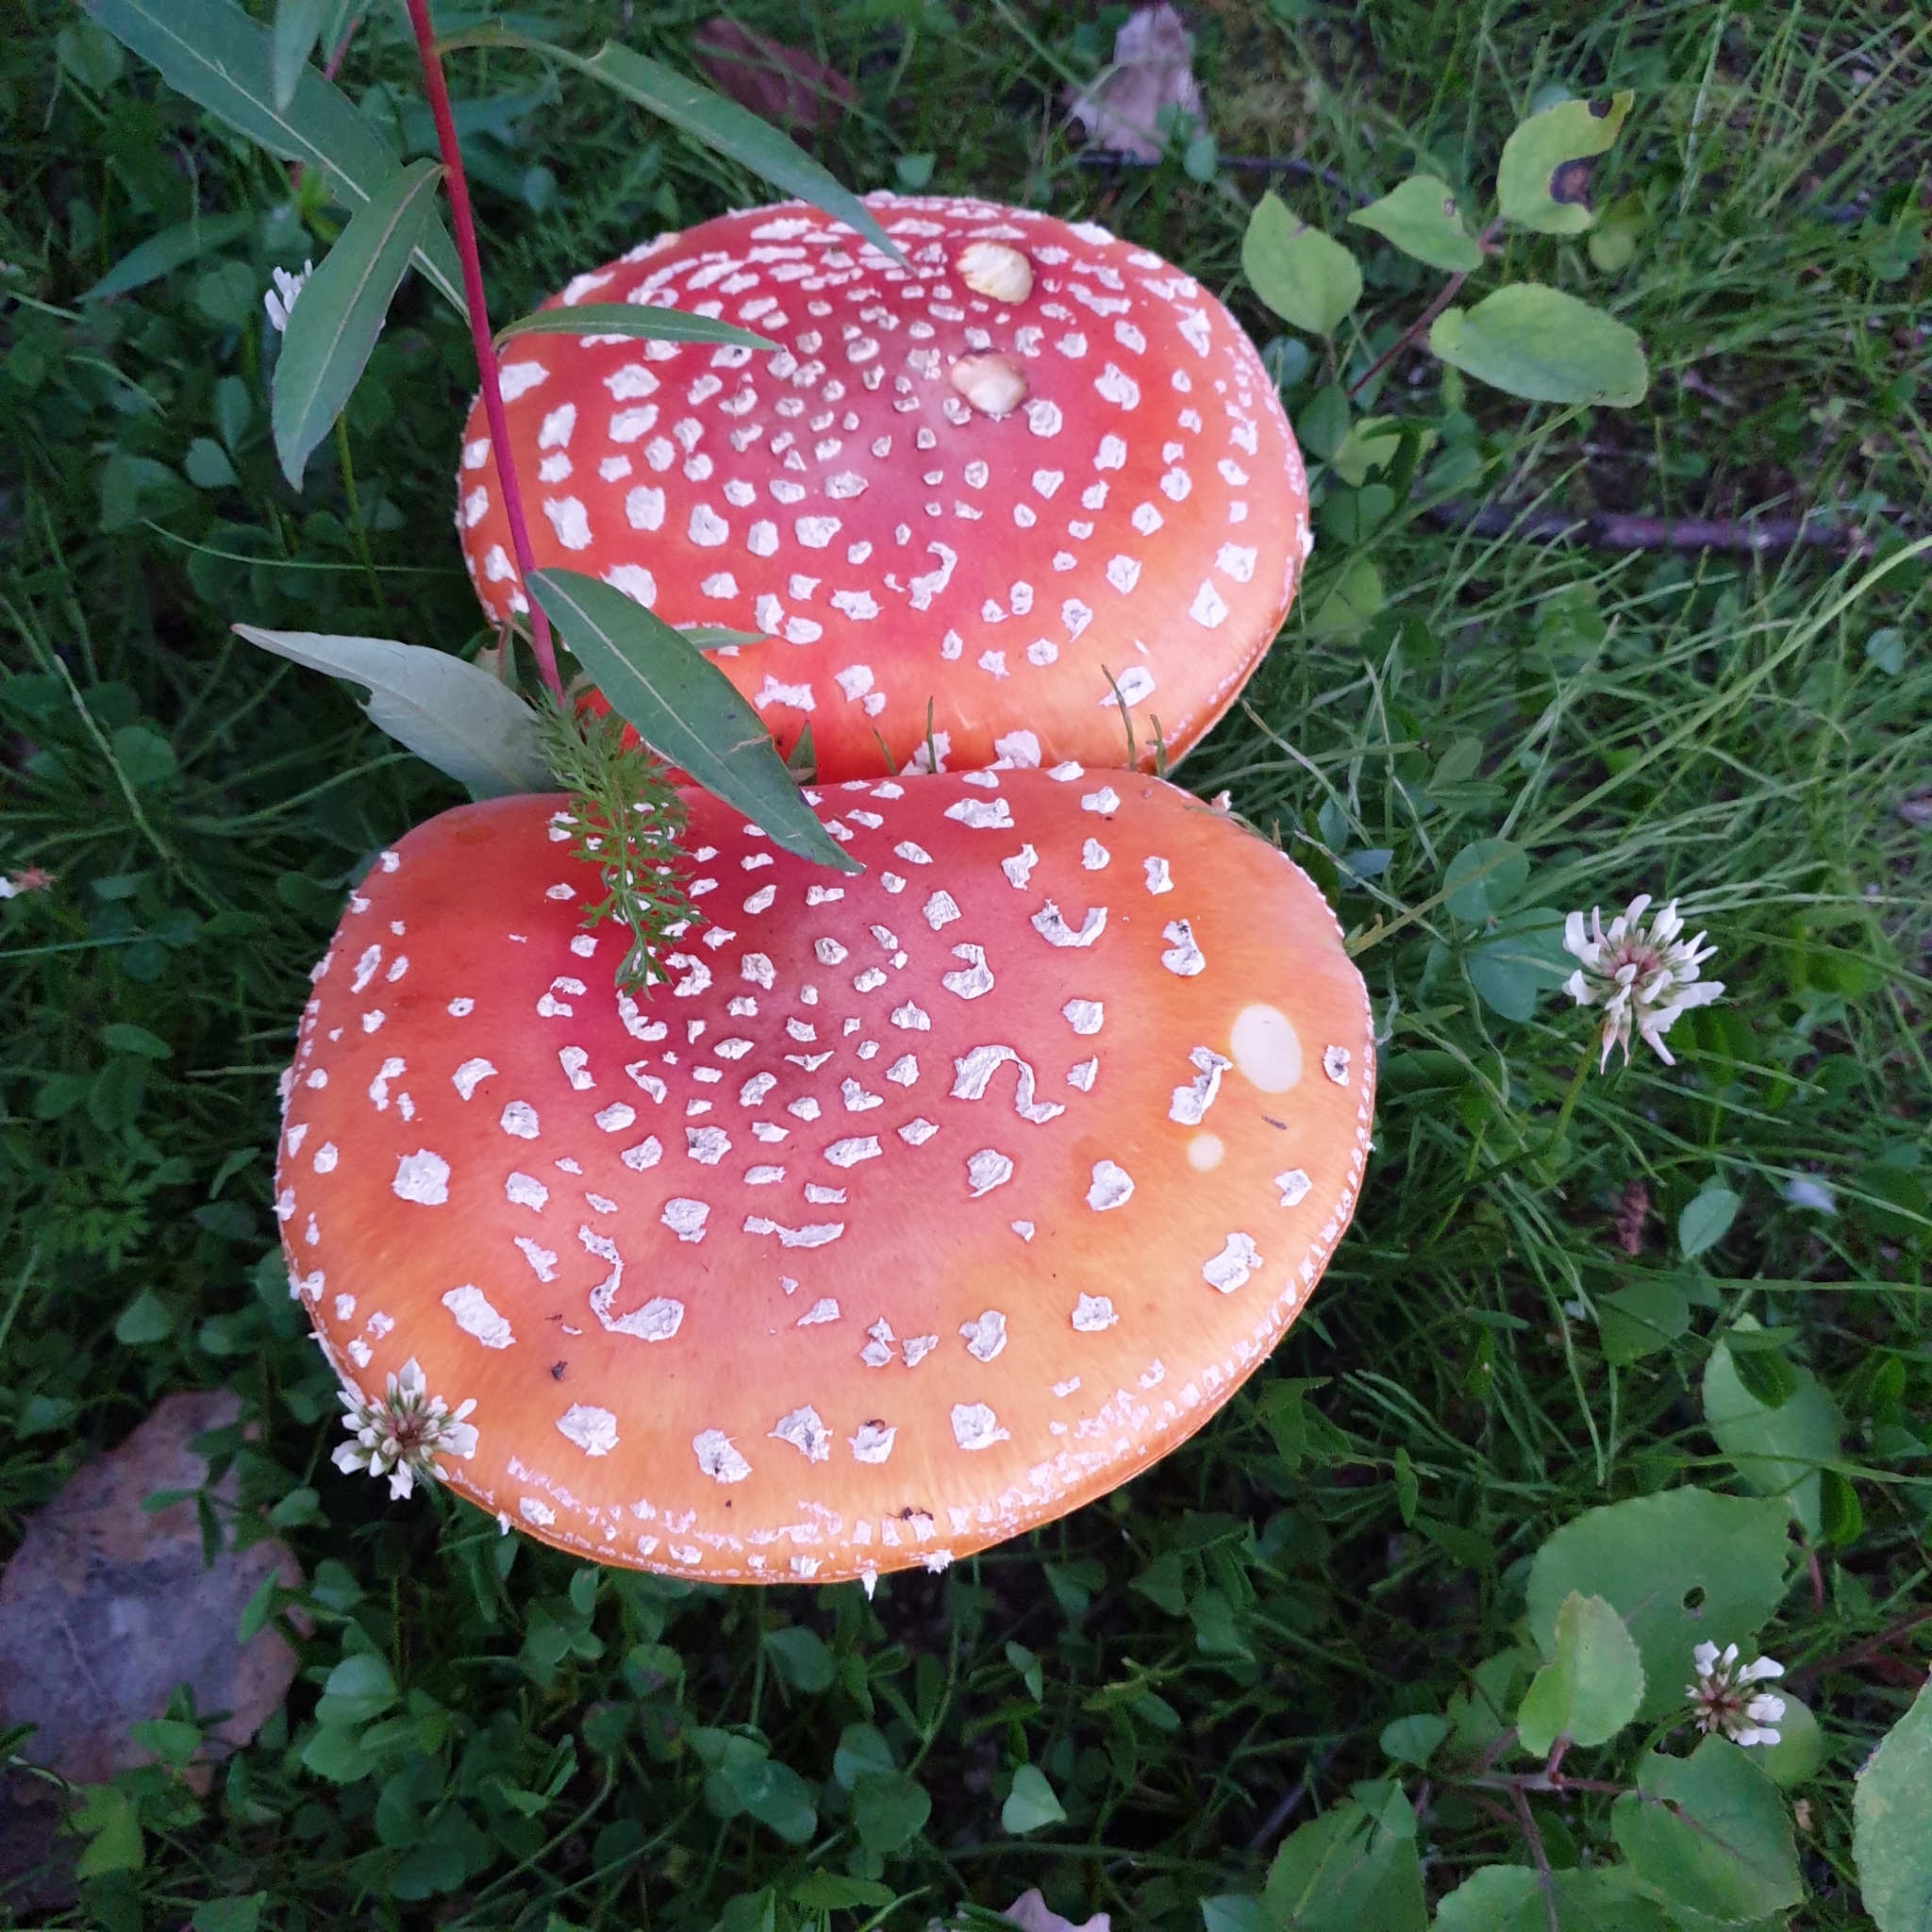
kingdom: Fungi
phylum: Basidiomycota
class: Agaricomycetes
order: Agaricales
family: Amanitaceae
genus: Amanita
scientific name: Amanita muscaria
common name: Fly agaric
